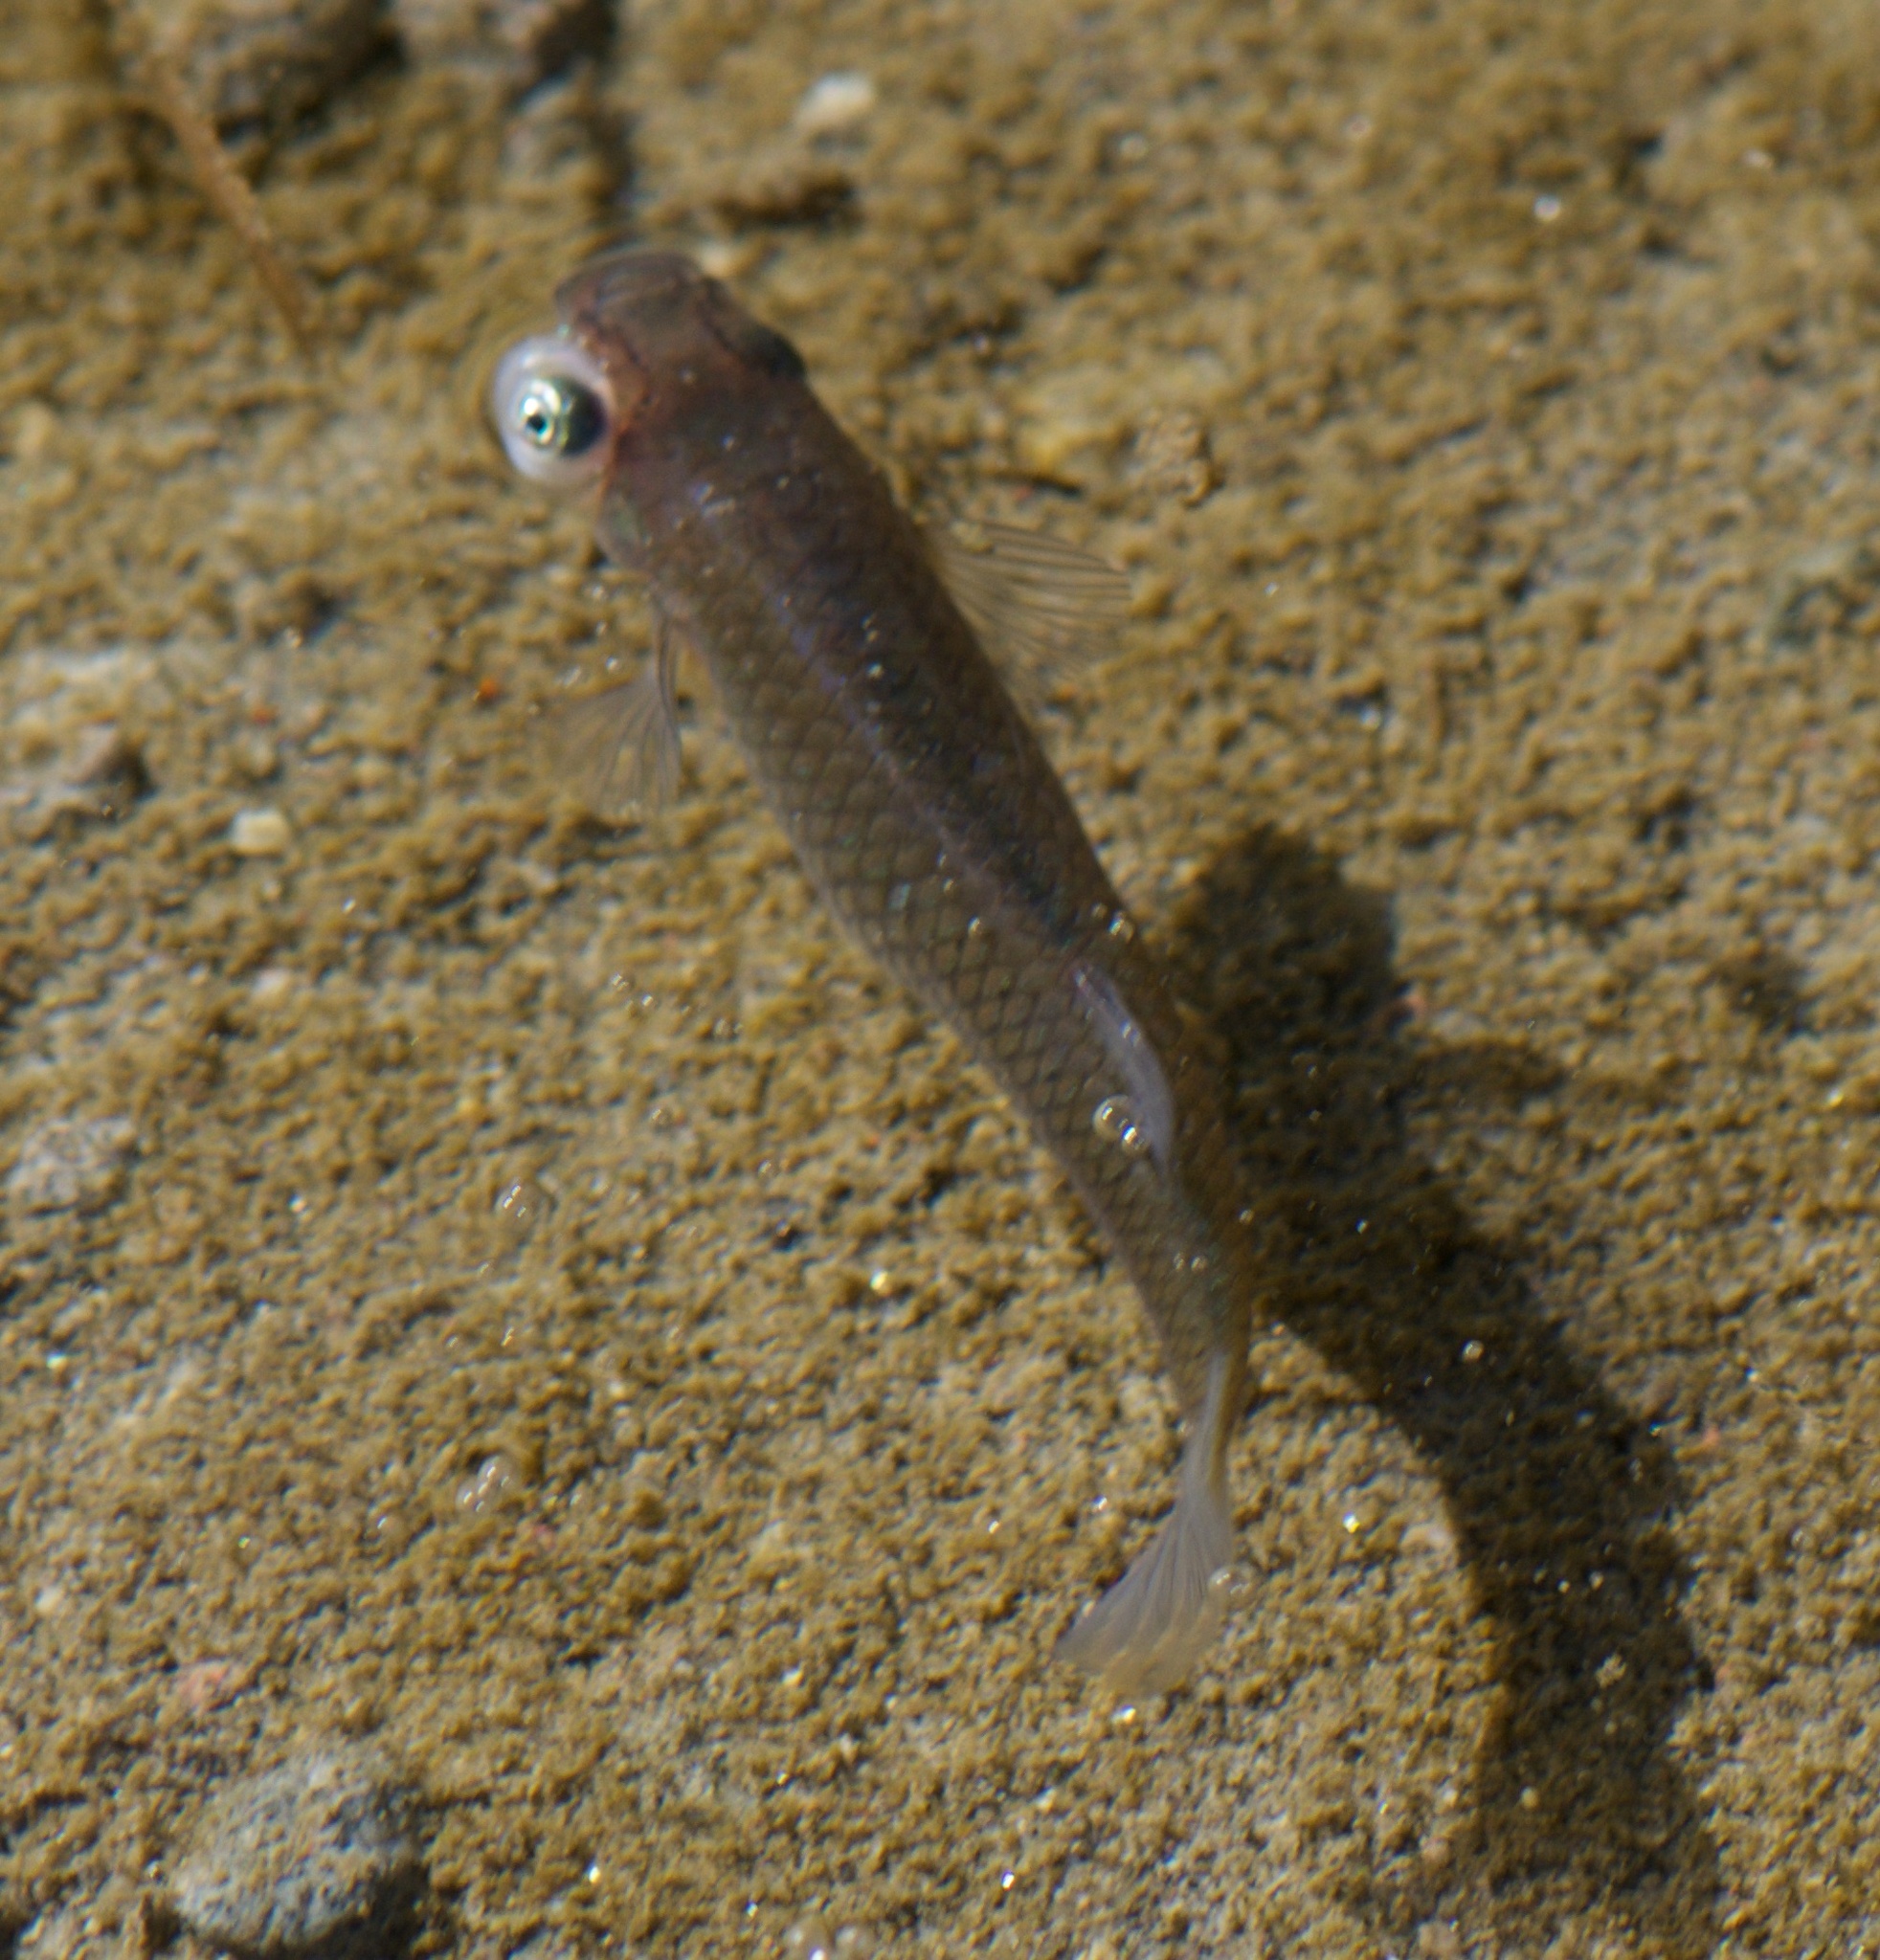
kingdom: Animalia
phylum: Chordata
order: Cyprinodontiformes
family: Poeciliidae
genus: Gambusia
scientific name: Gambusia affinis
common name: Mosquitofish
